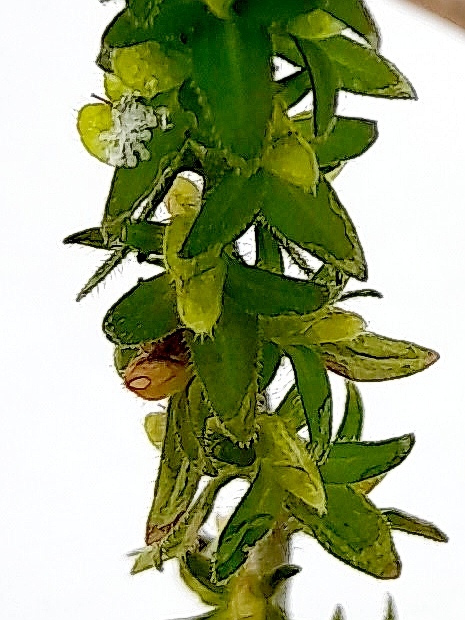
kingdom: Plantae
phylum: Tracheophyta
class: Magnoliopsida
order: Lamiales
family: Plantaginaceae
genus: Veronica
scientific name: Veronica arvensis
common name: Corn speedwell
